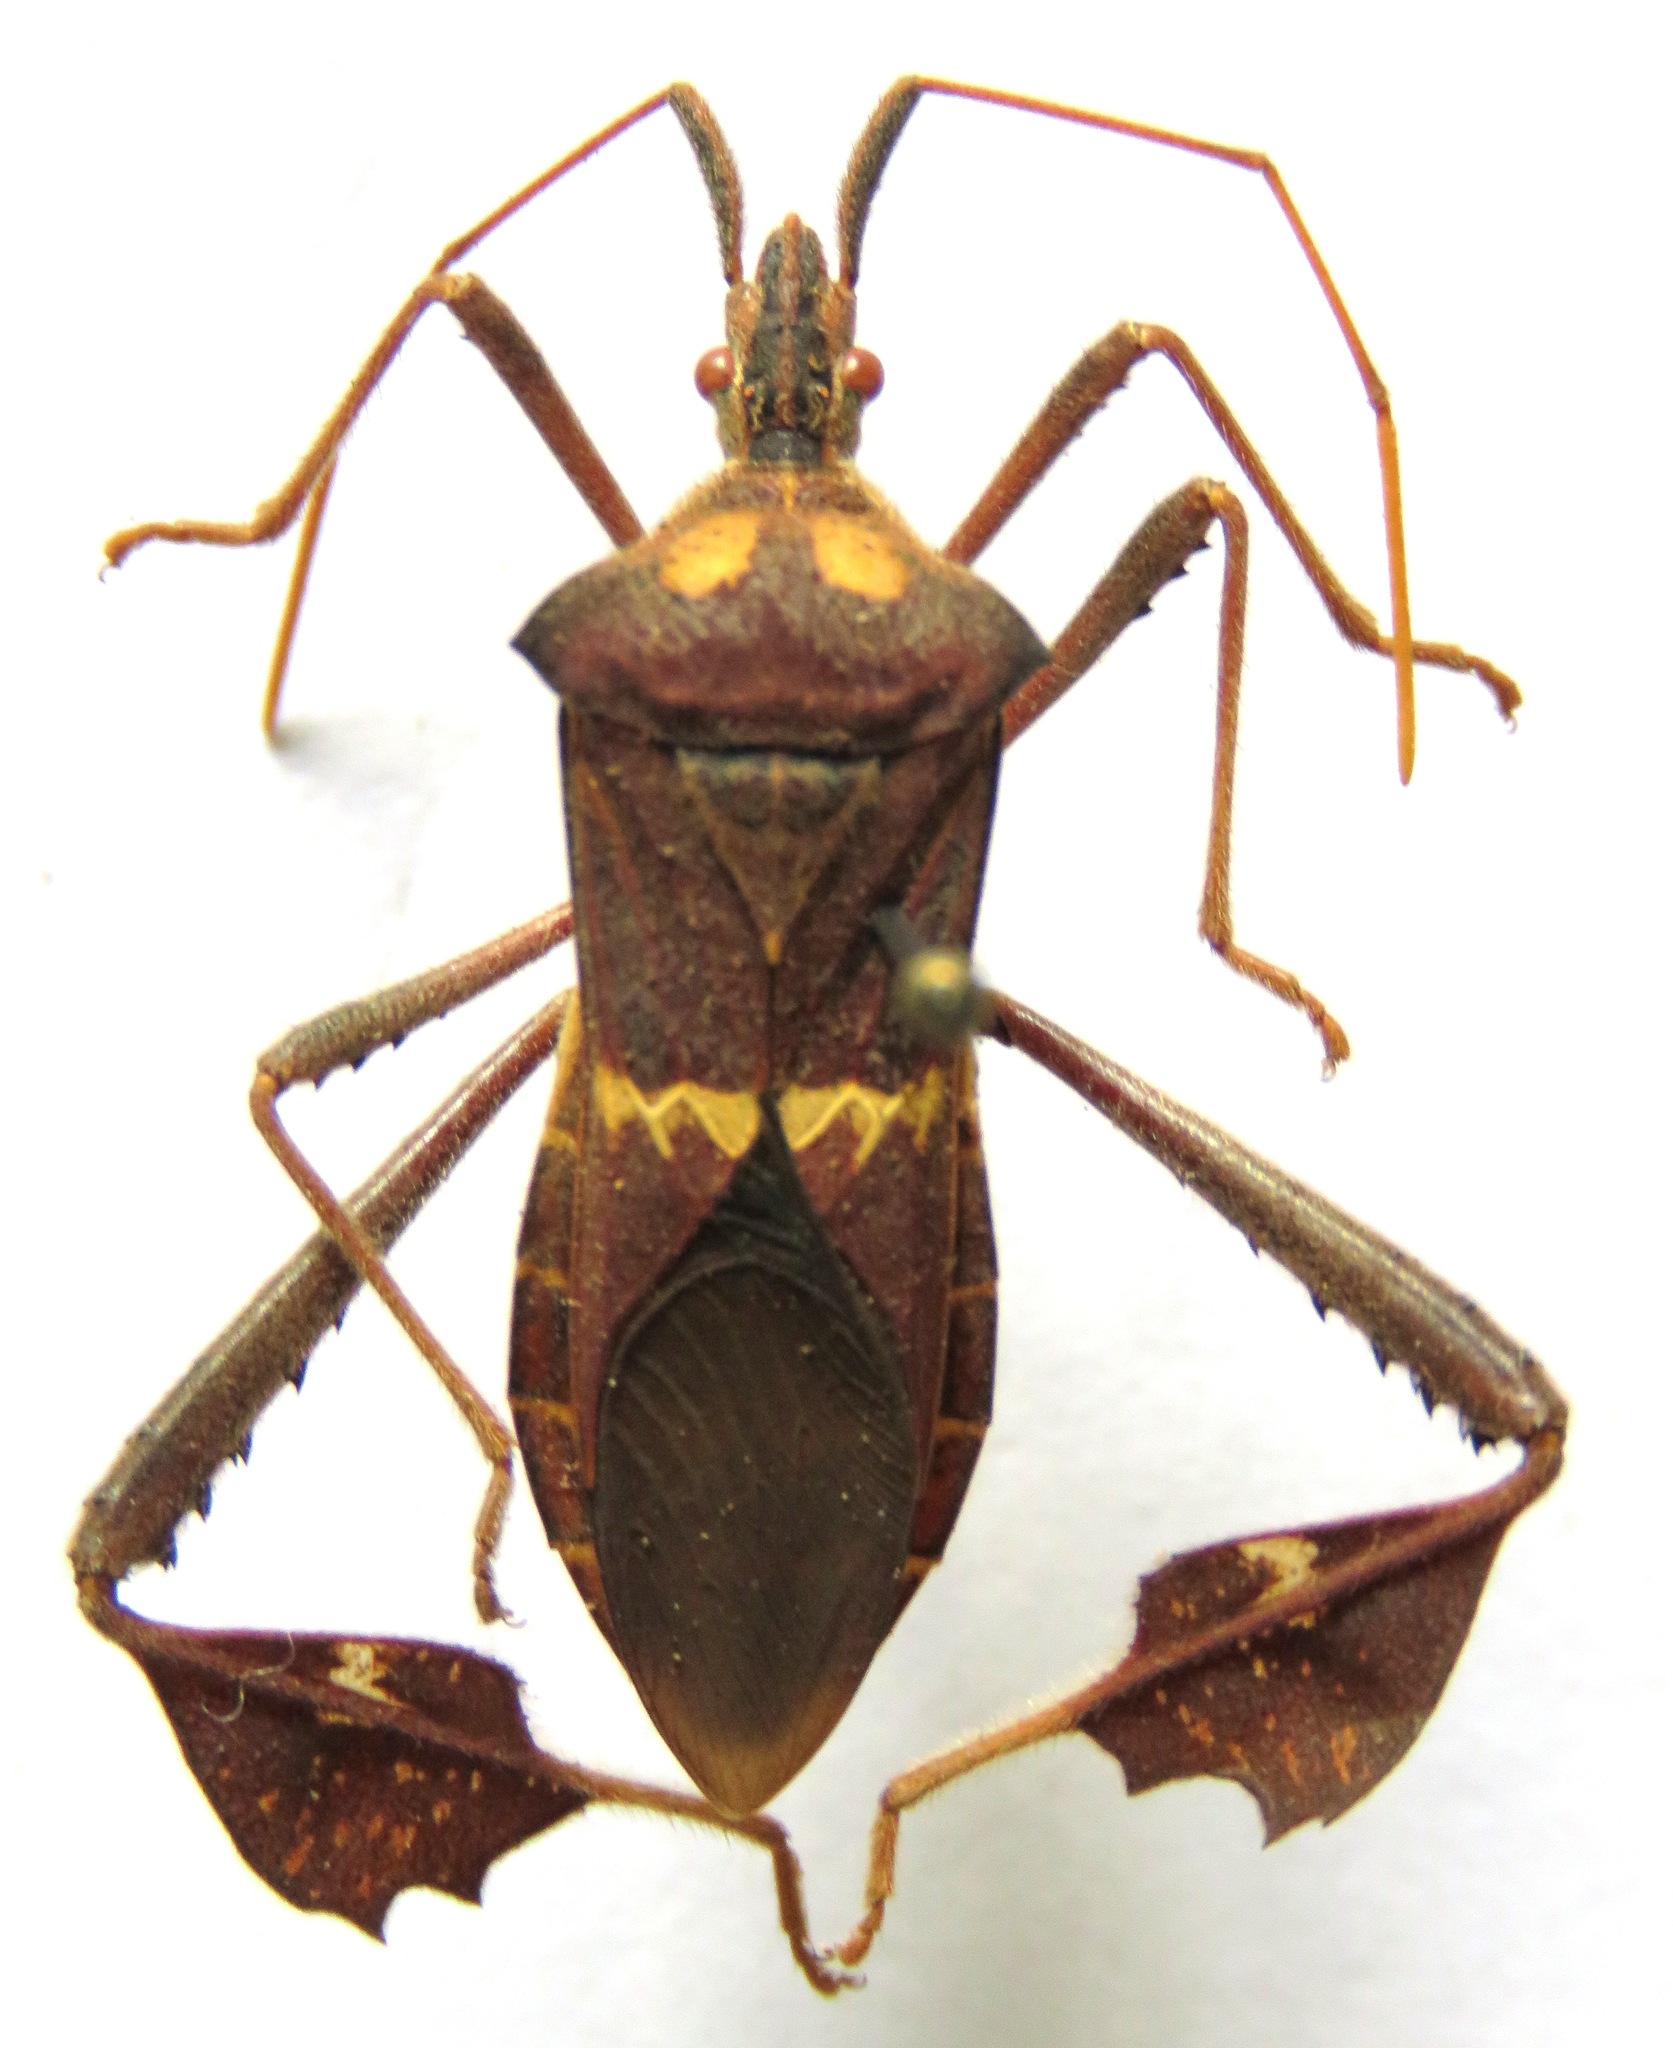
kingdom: Animalia
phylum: Arthropoda
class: Insecta
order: Hemiptera
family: Coreidae
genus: Leptoglossus
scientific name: Leptoglossus zonatus
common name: Large-legged bug
